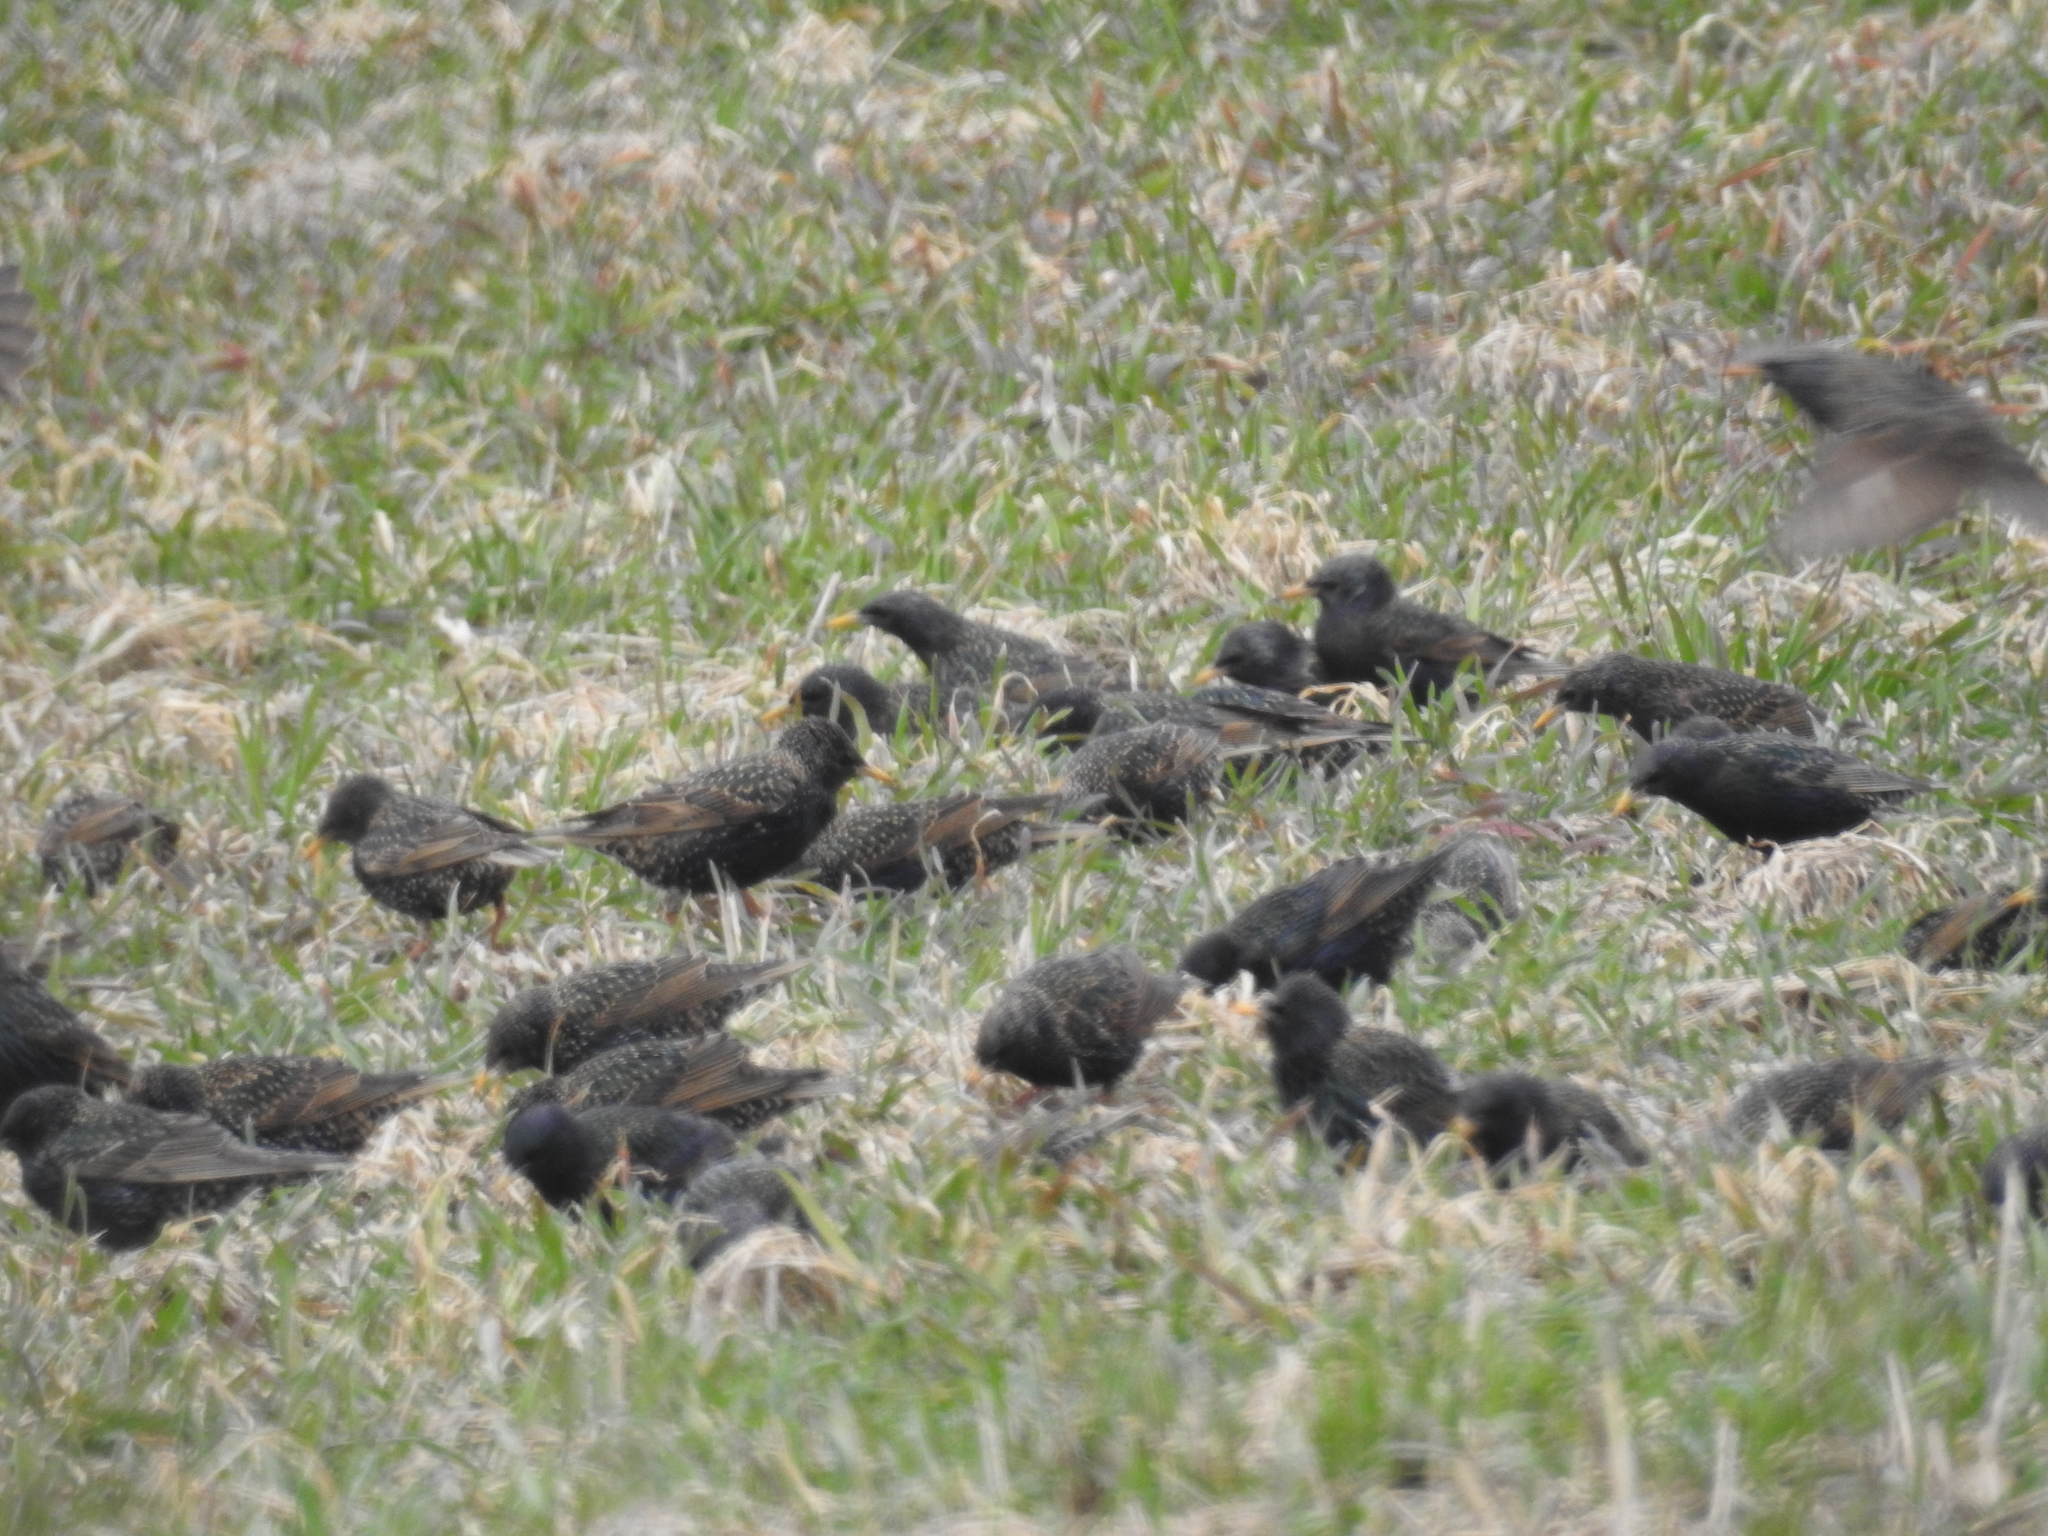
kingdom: Animalia
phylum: Chordata
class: Aves
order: Passeriformes
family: Sturnidae
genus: Sturnus
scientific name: Sturnus vulgaris
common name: Common starling
